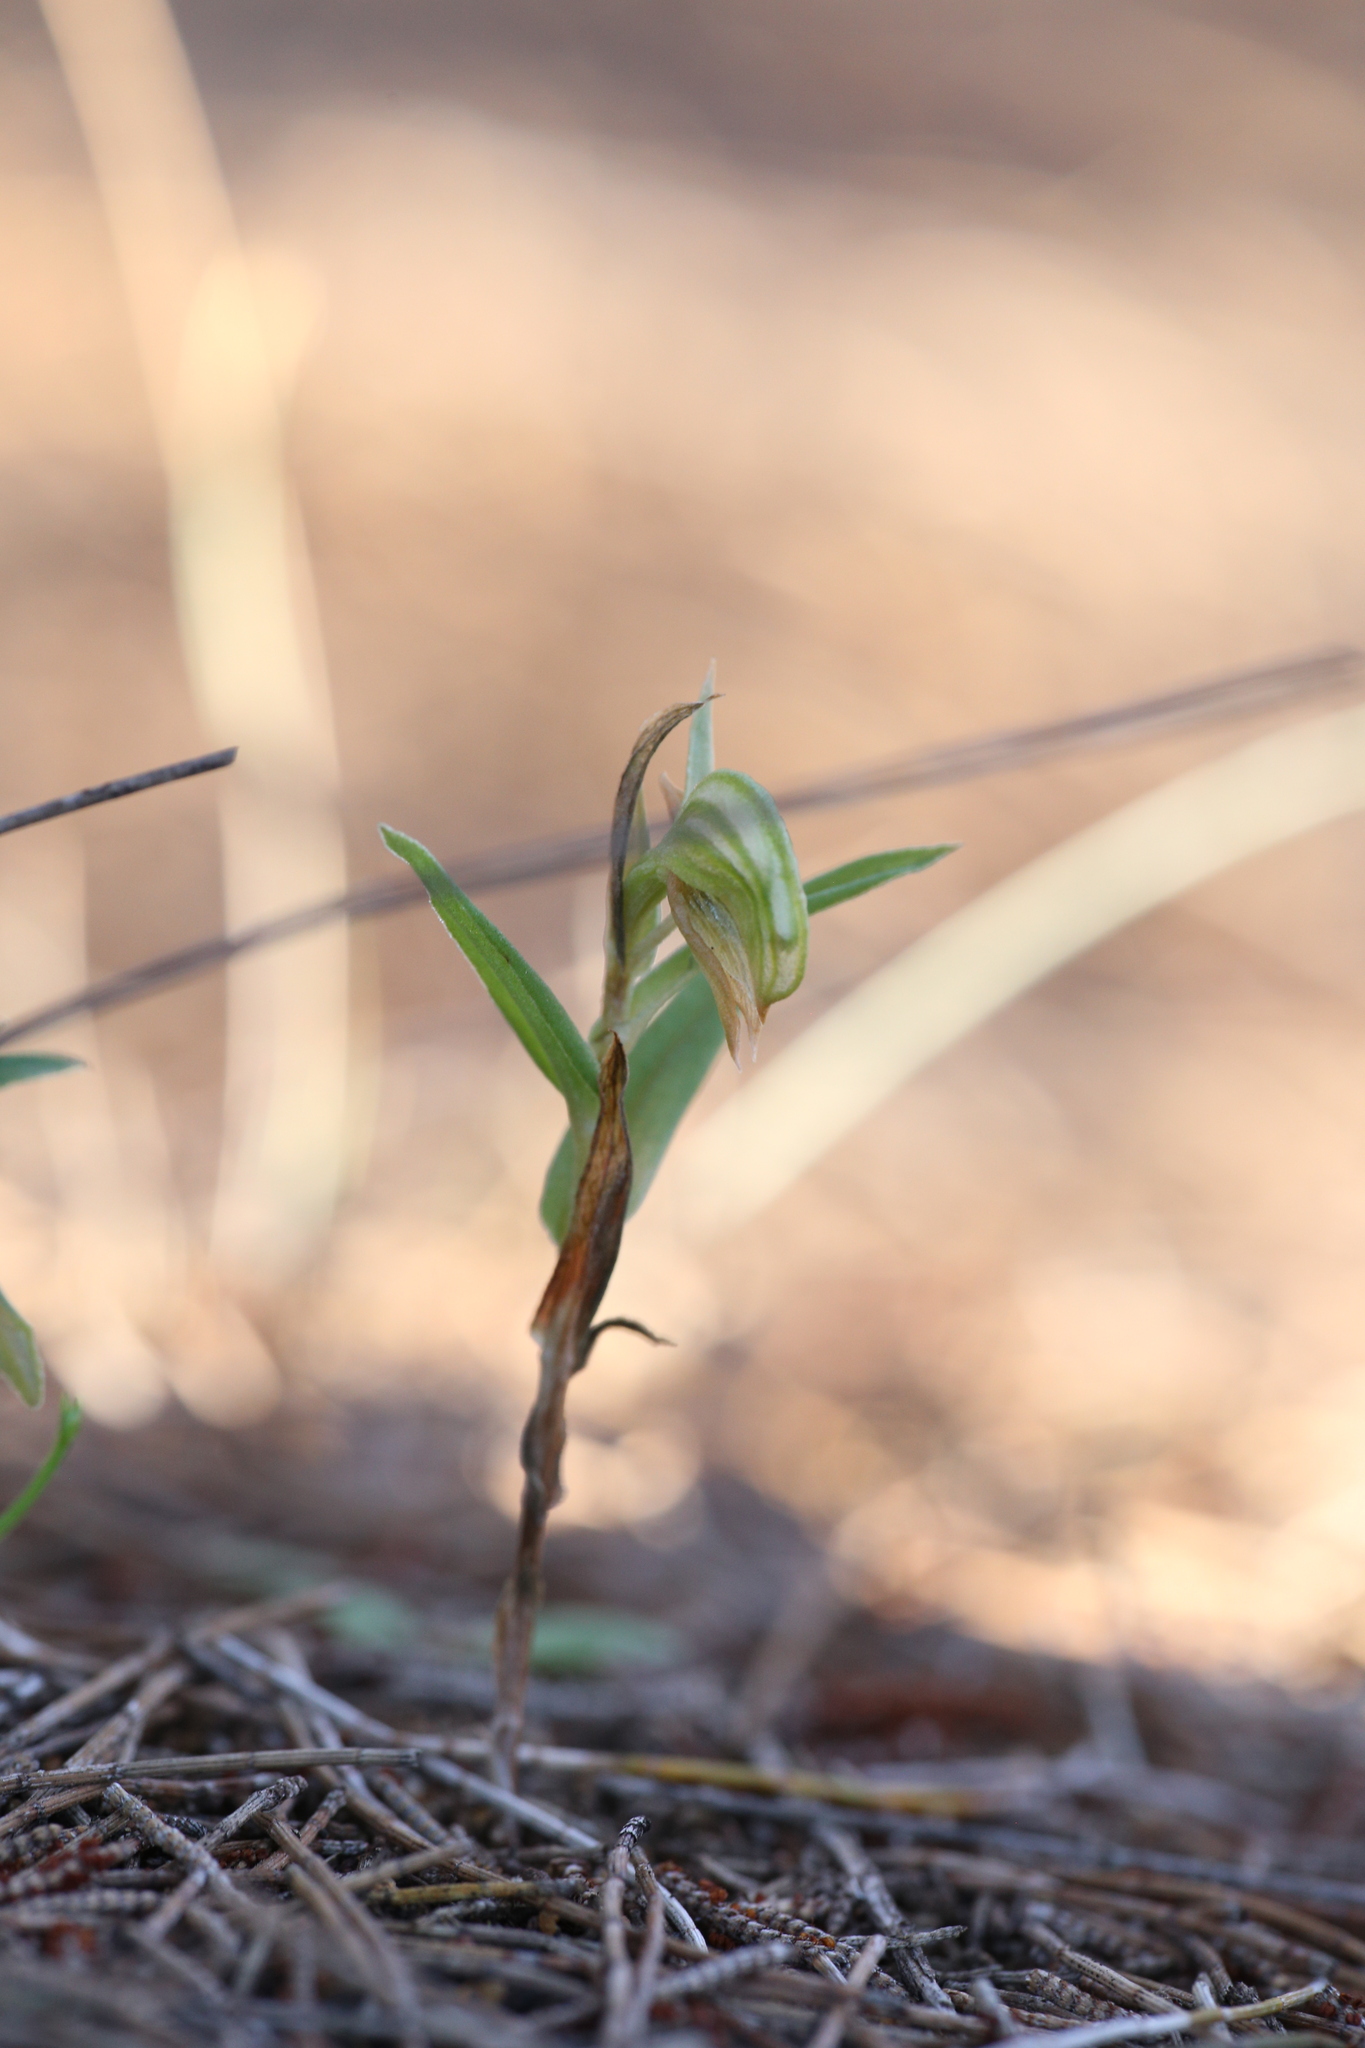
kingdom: Plantae
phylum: Tracheophyta
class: Liliopsida
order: Asparagales
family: Orchidaceae
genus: Pterostylis
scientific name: Pterostylis sanguinea
